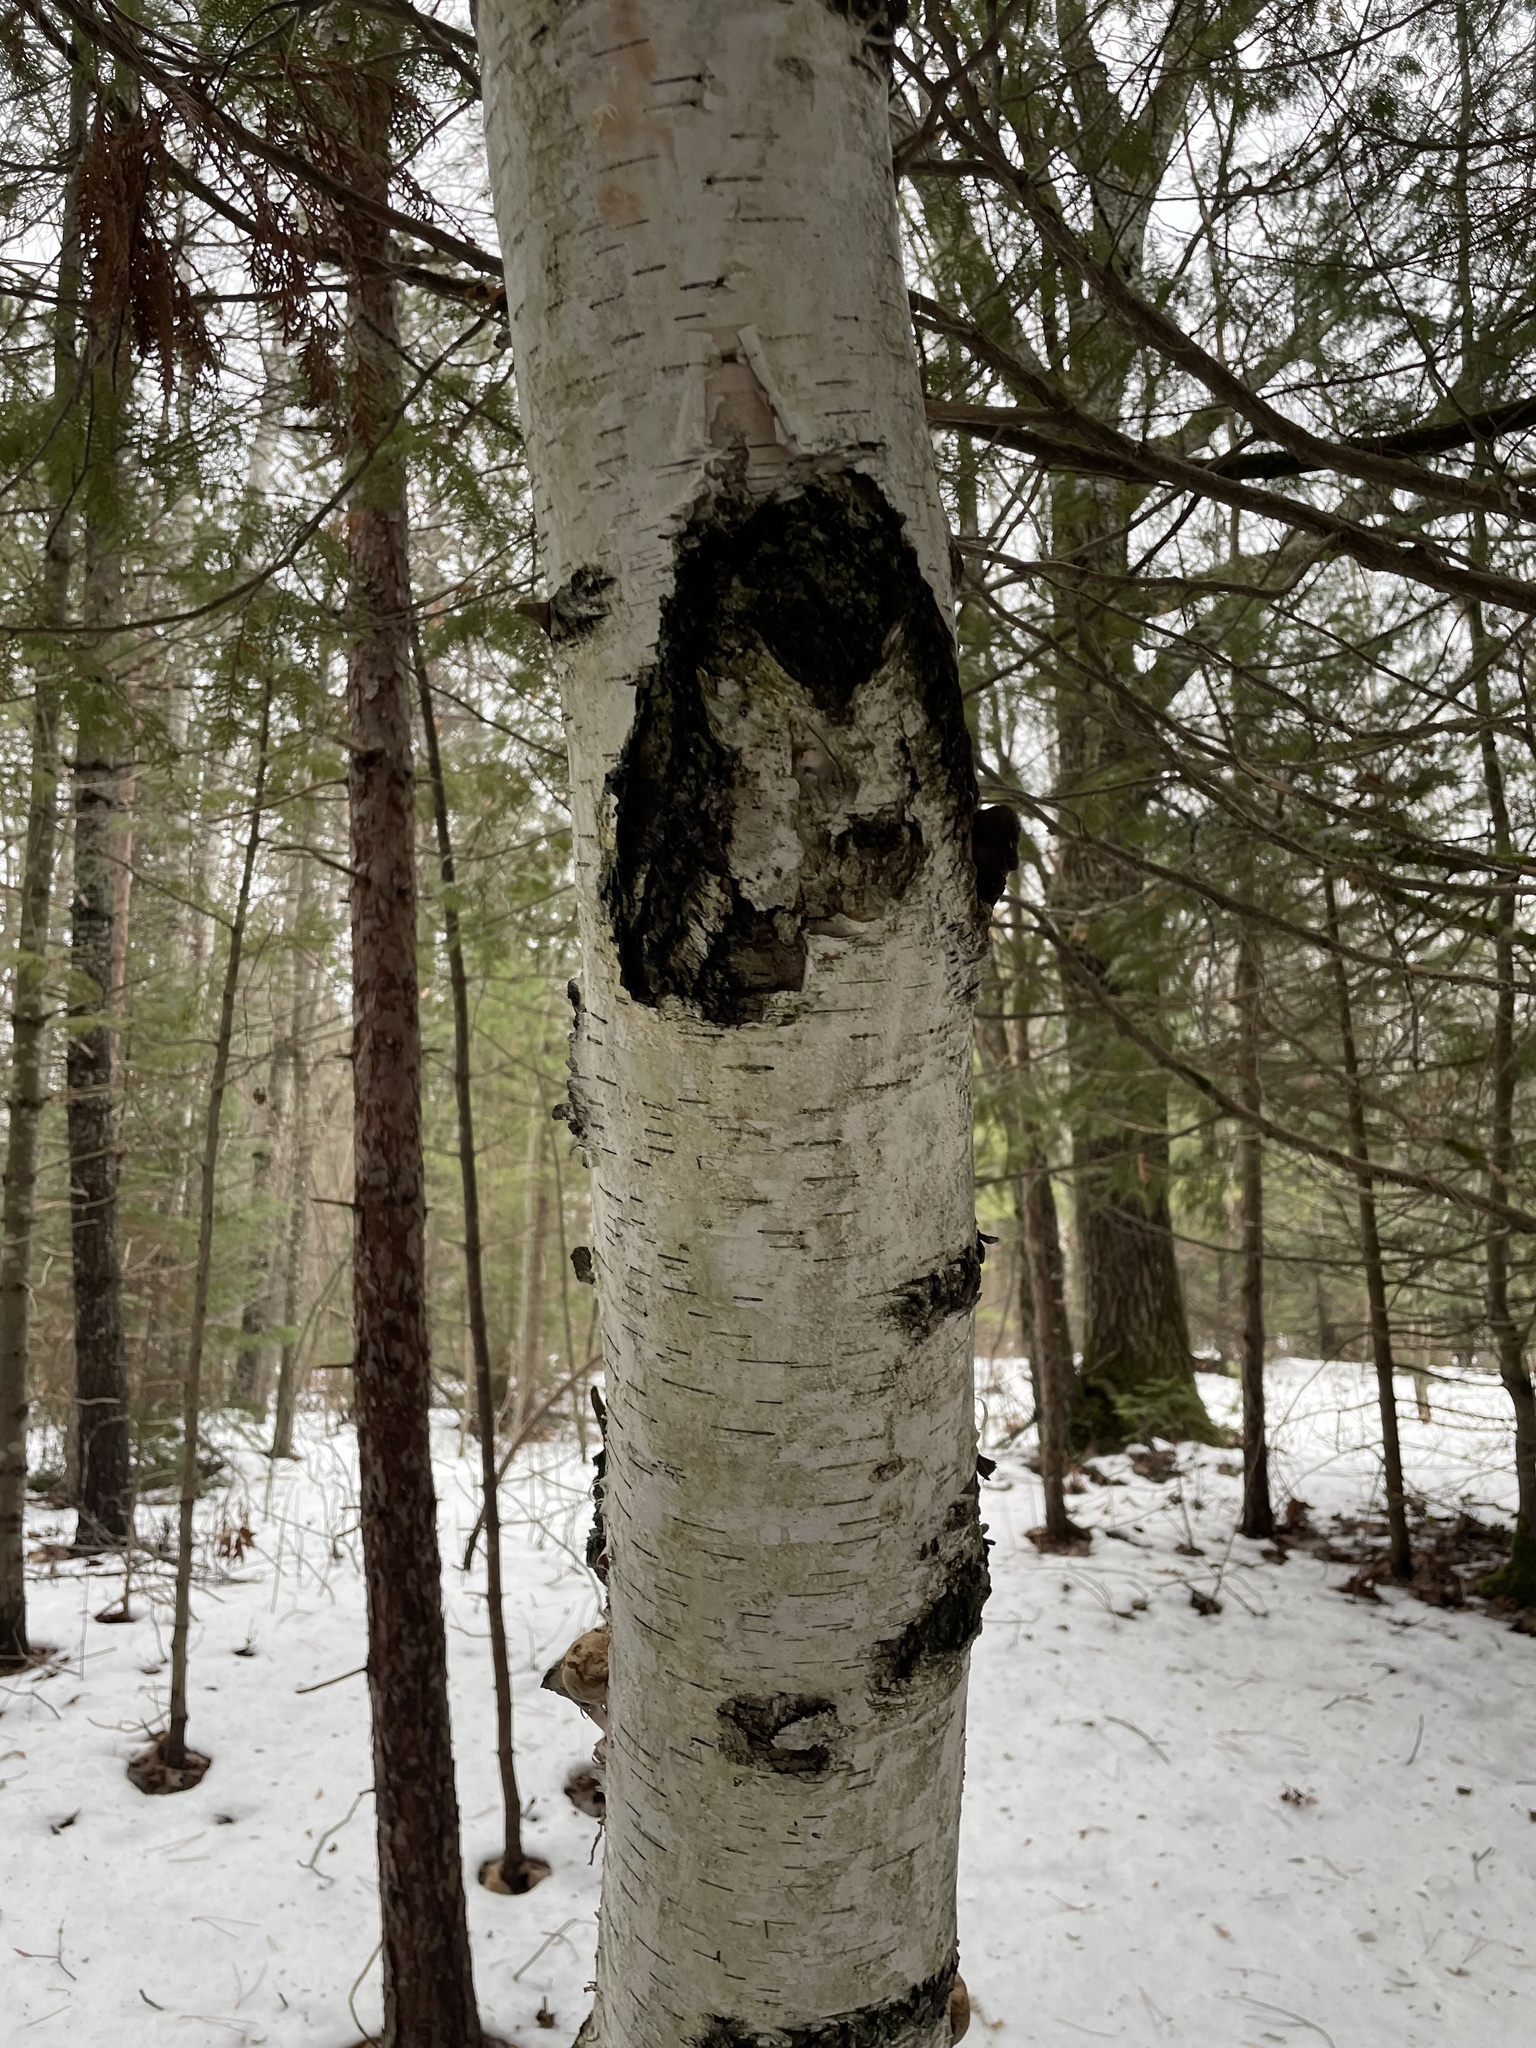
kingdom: Plantae
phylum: Tracheophyta
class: Magnoliopsida
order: Fagales
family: Betulaceae
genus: Betula
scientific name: Betula papyrifera
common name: Paper birch
